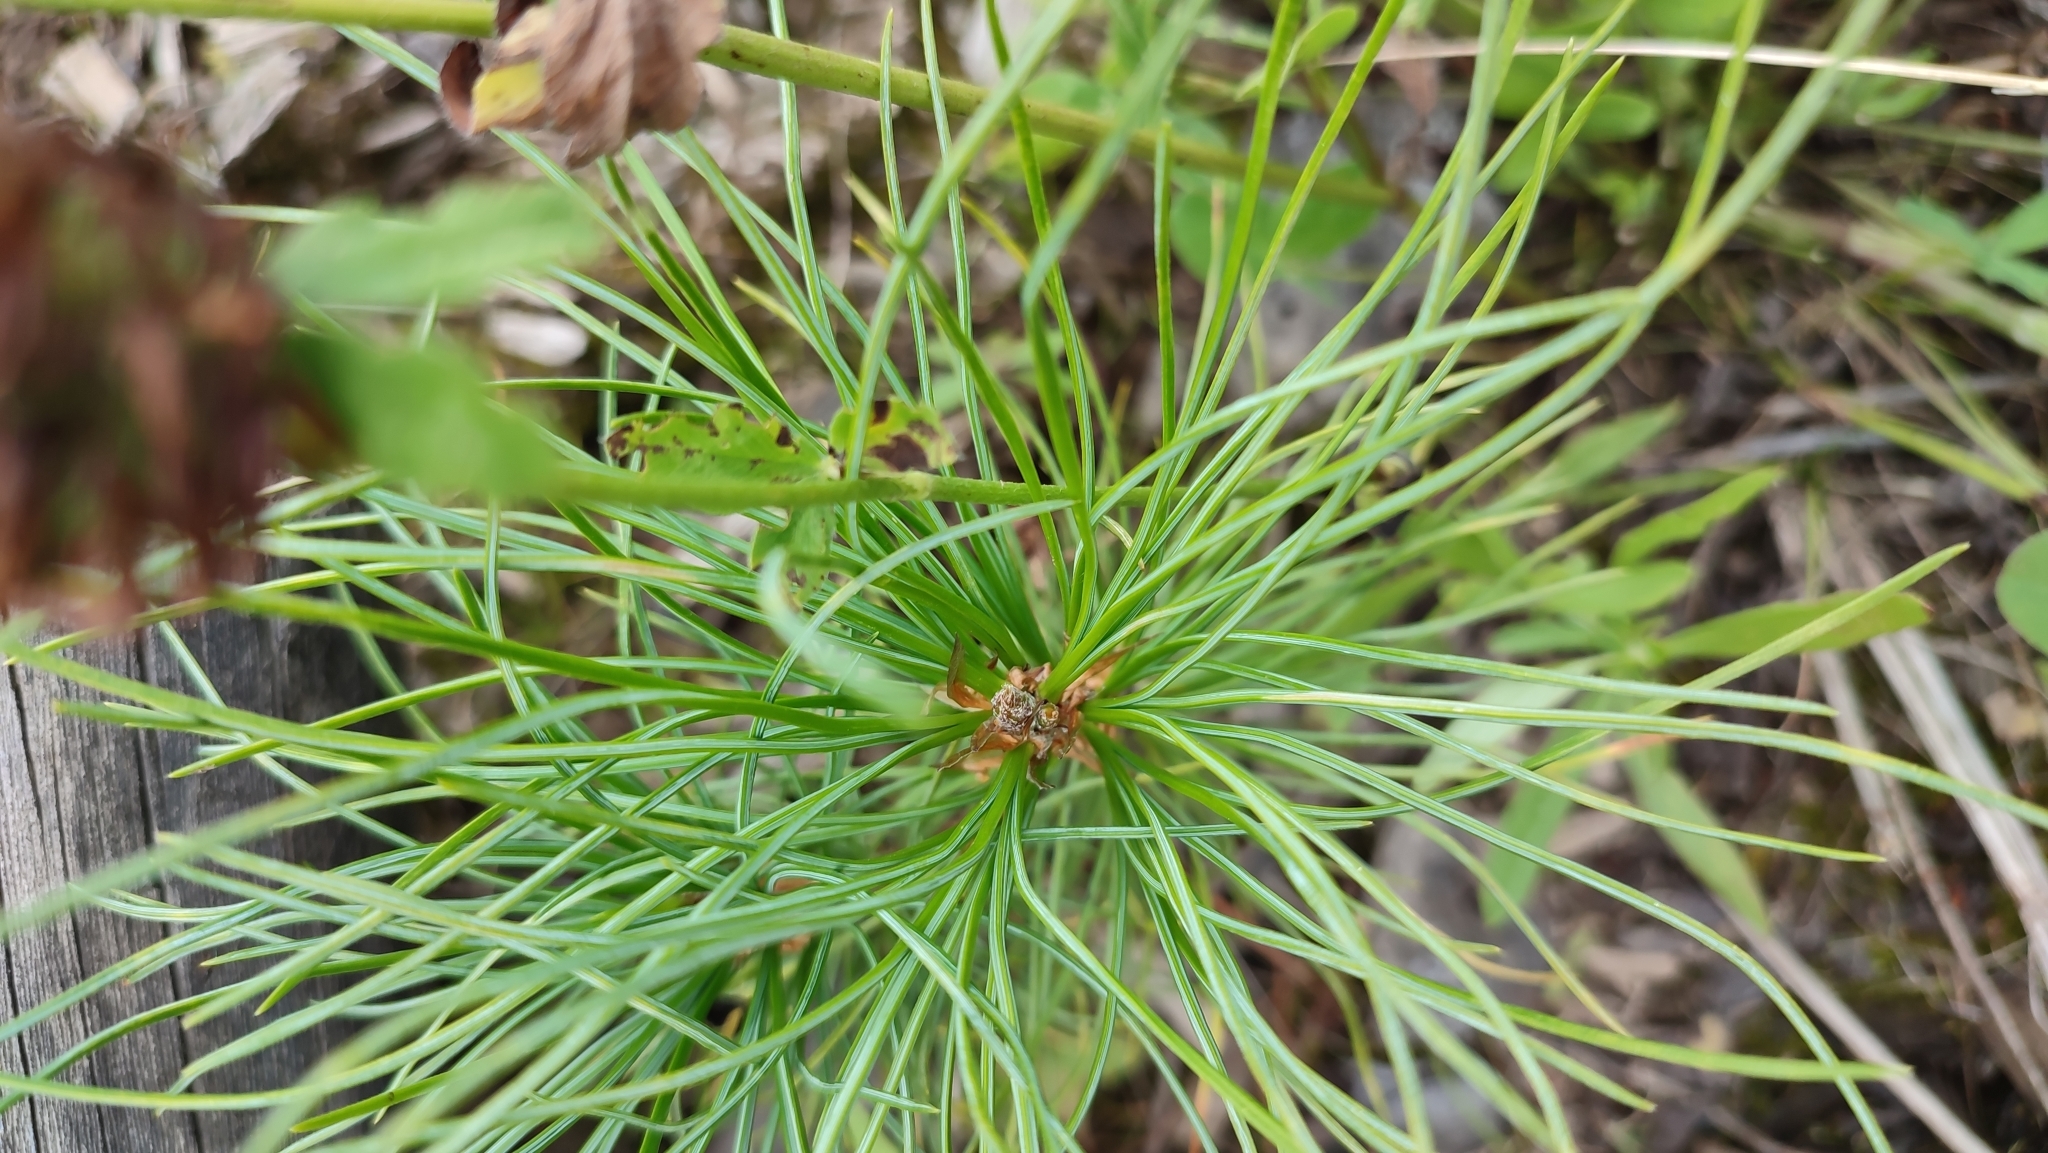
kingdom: Plantae
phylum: Tracheophyta
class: Pinopsida
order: Pinales
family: Pinaceae
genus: Pinus
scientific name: Pinus sibirica
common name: Siberian pine
